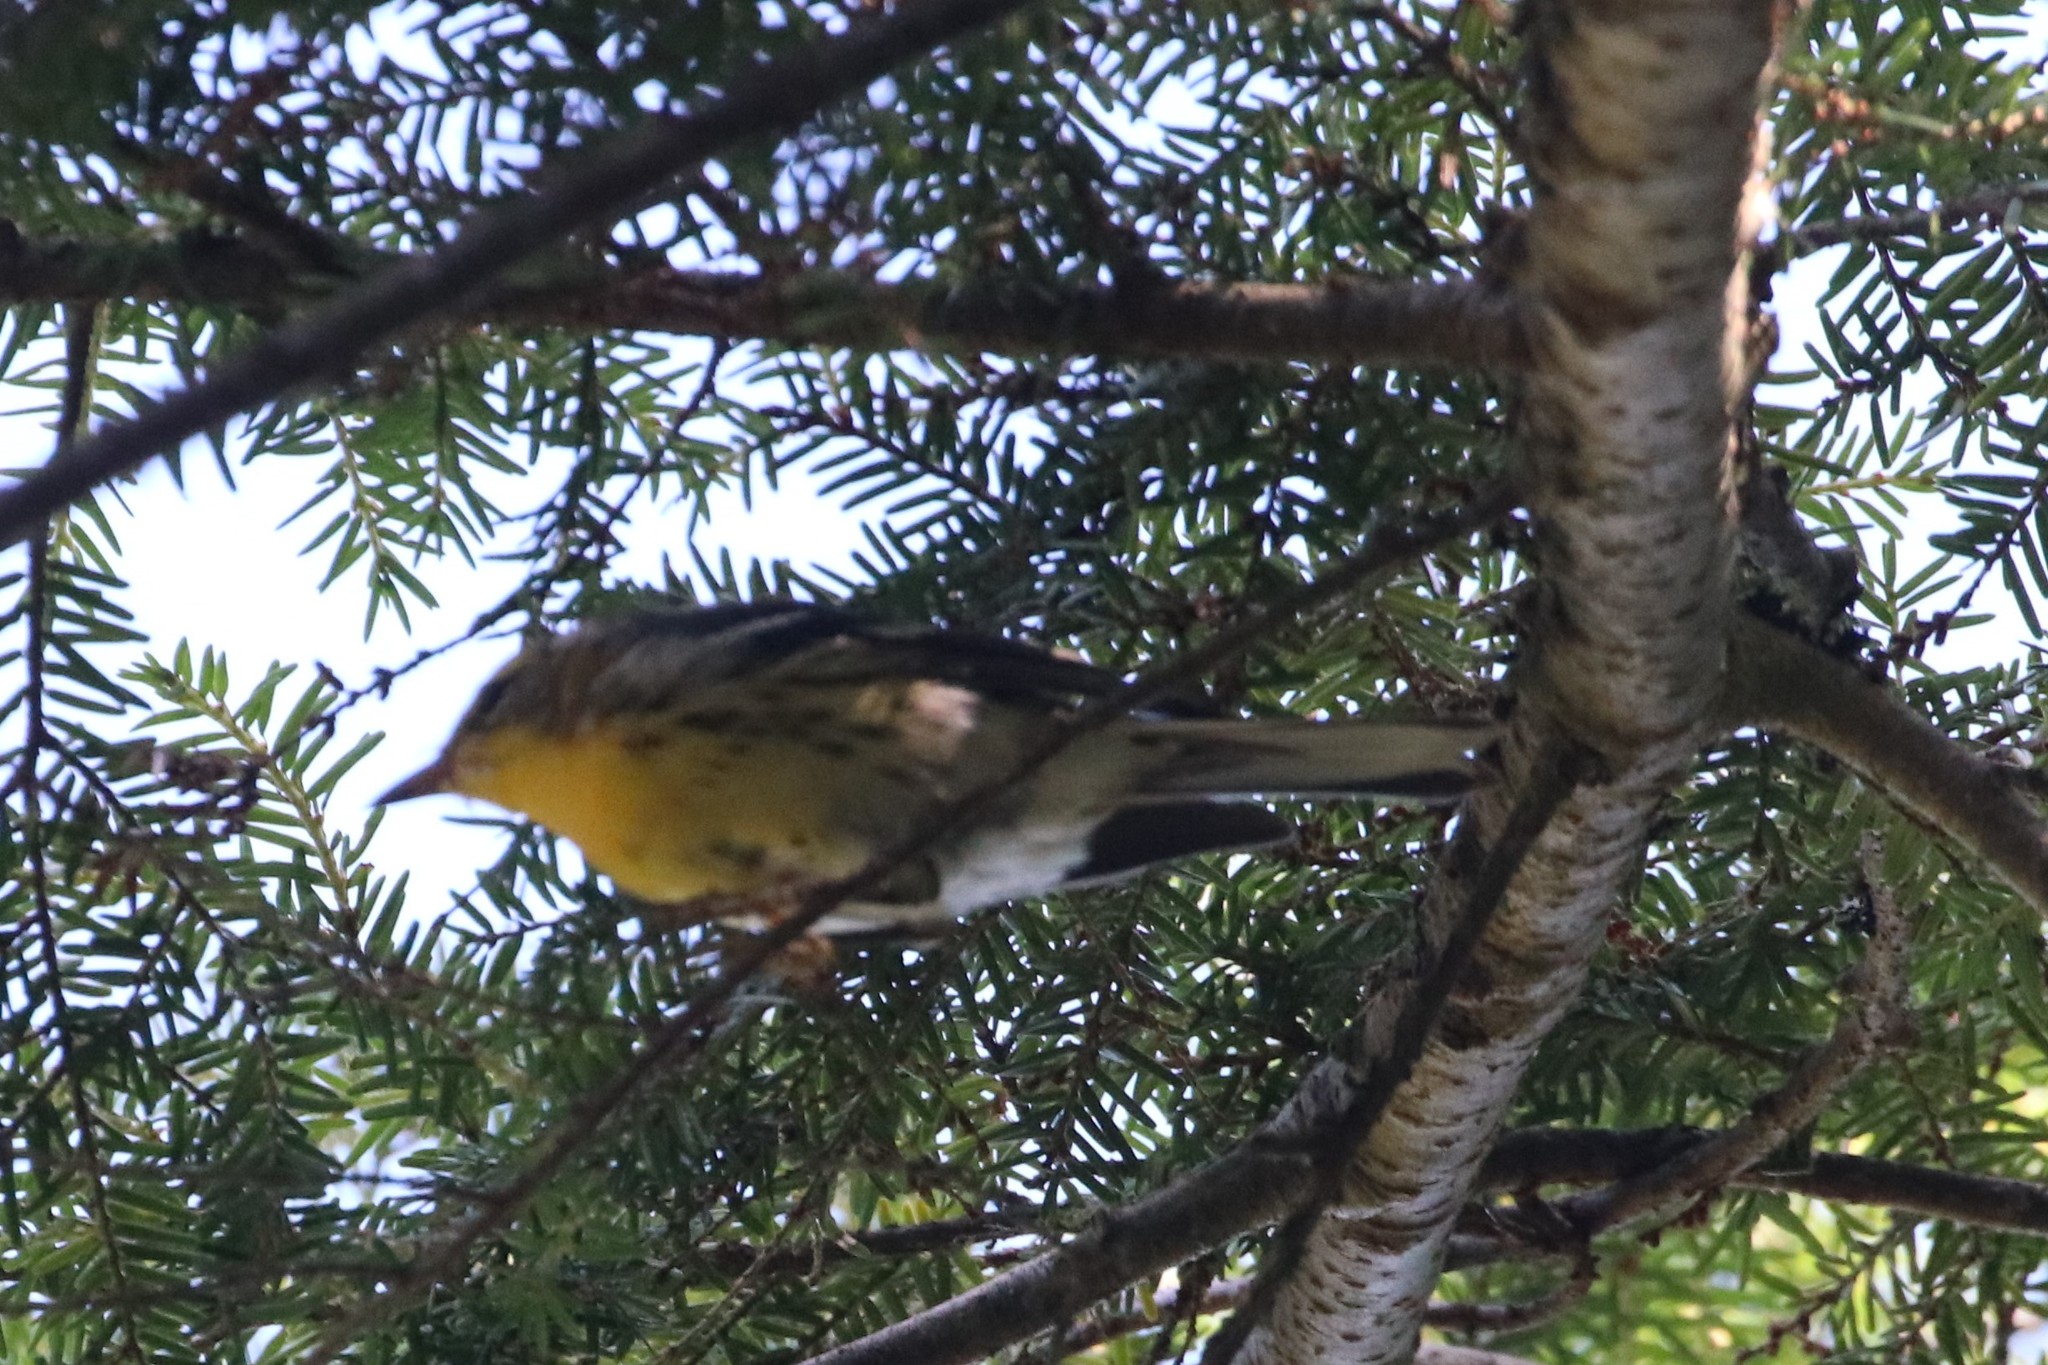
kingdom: Animalia
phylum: Chordata
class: Aves
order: Passeriformes
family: Parulidae
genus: Setophaga
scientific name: Setophaga fusca
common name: Blackburnian warbler
